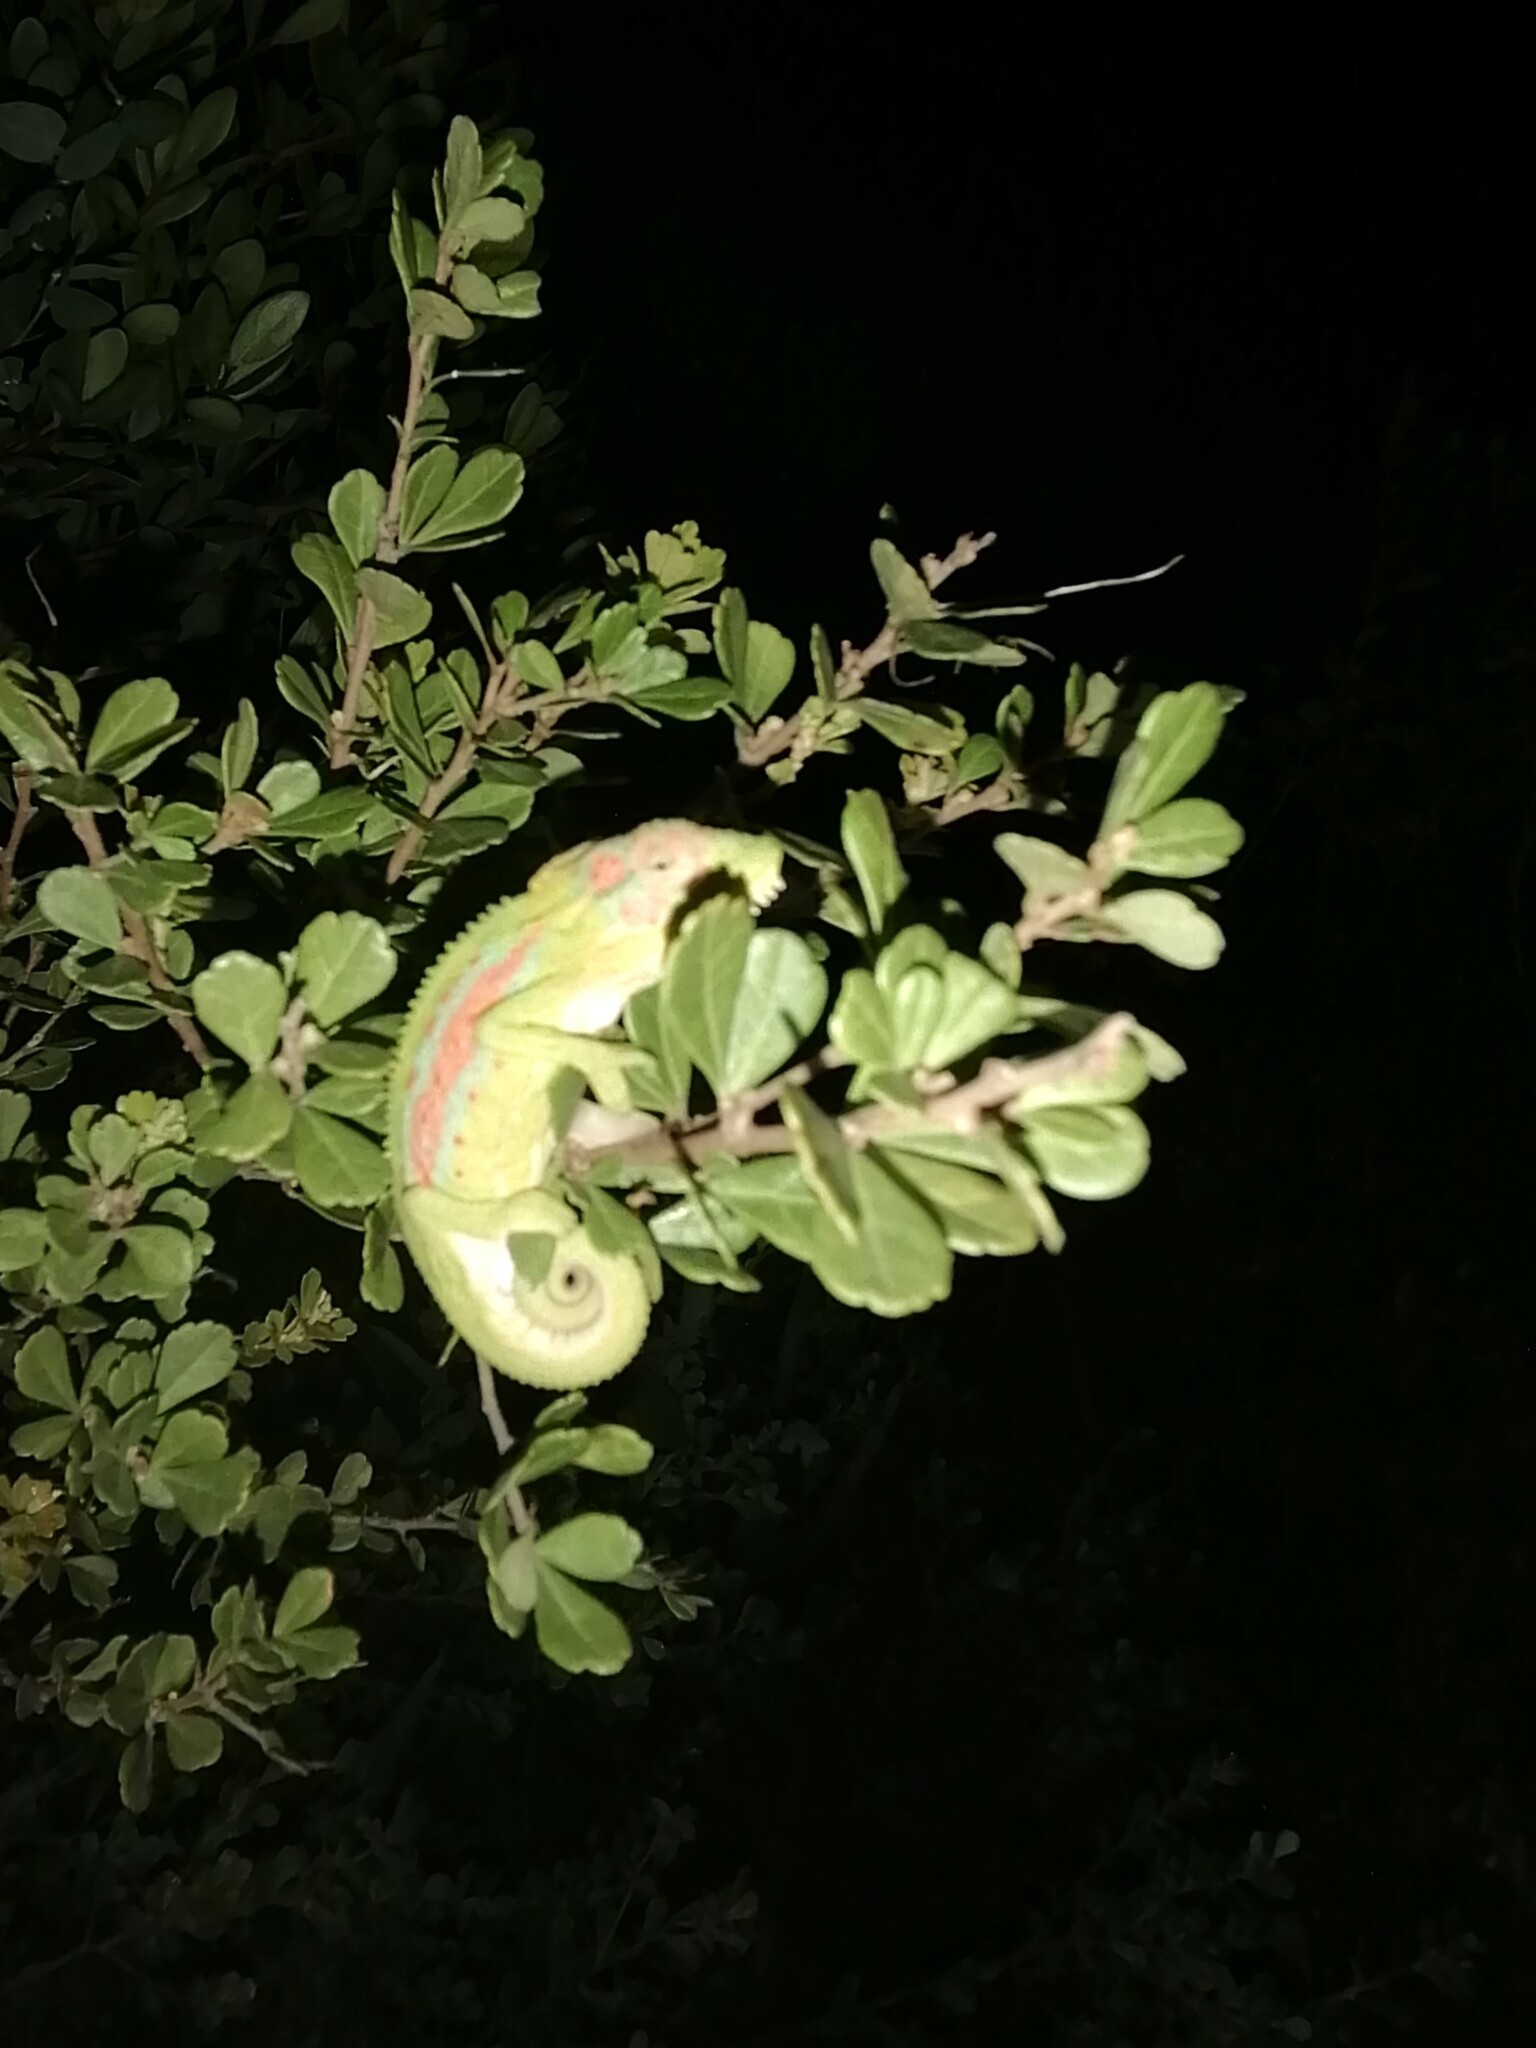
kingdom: Animalia
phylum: Chordata
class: Squamata
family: Chamaeleonidae
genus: Bradypodion
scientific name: Bradypodion pumilum
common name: Cape dwarf chameleon
